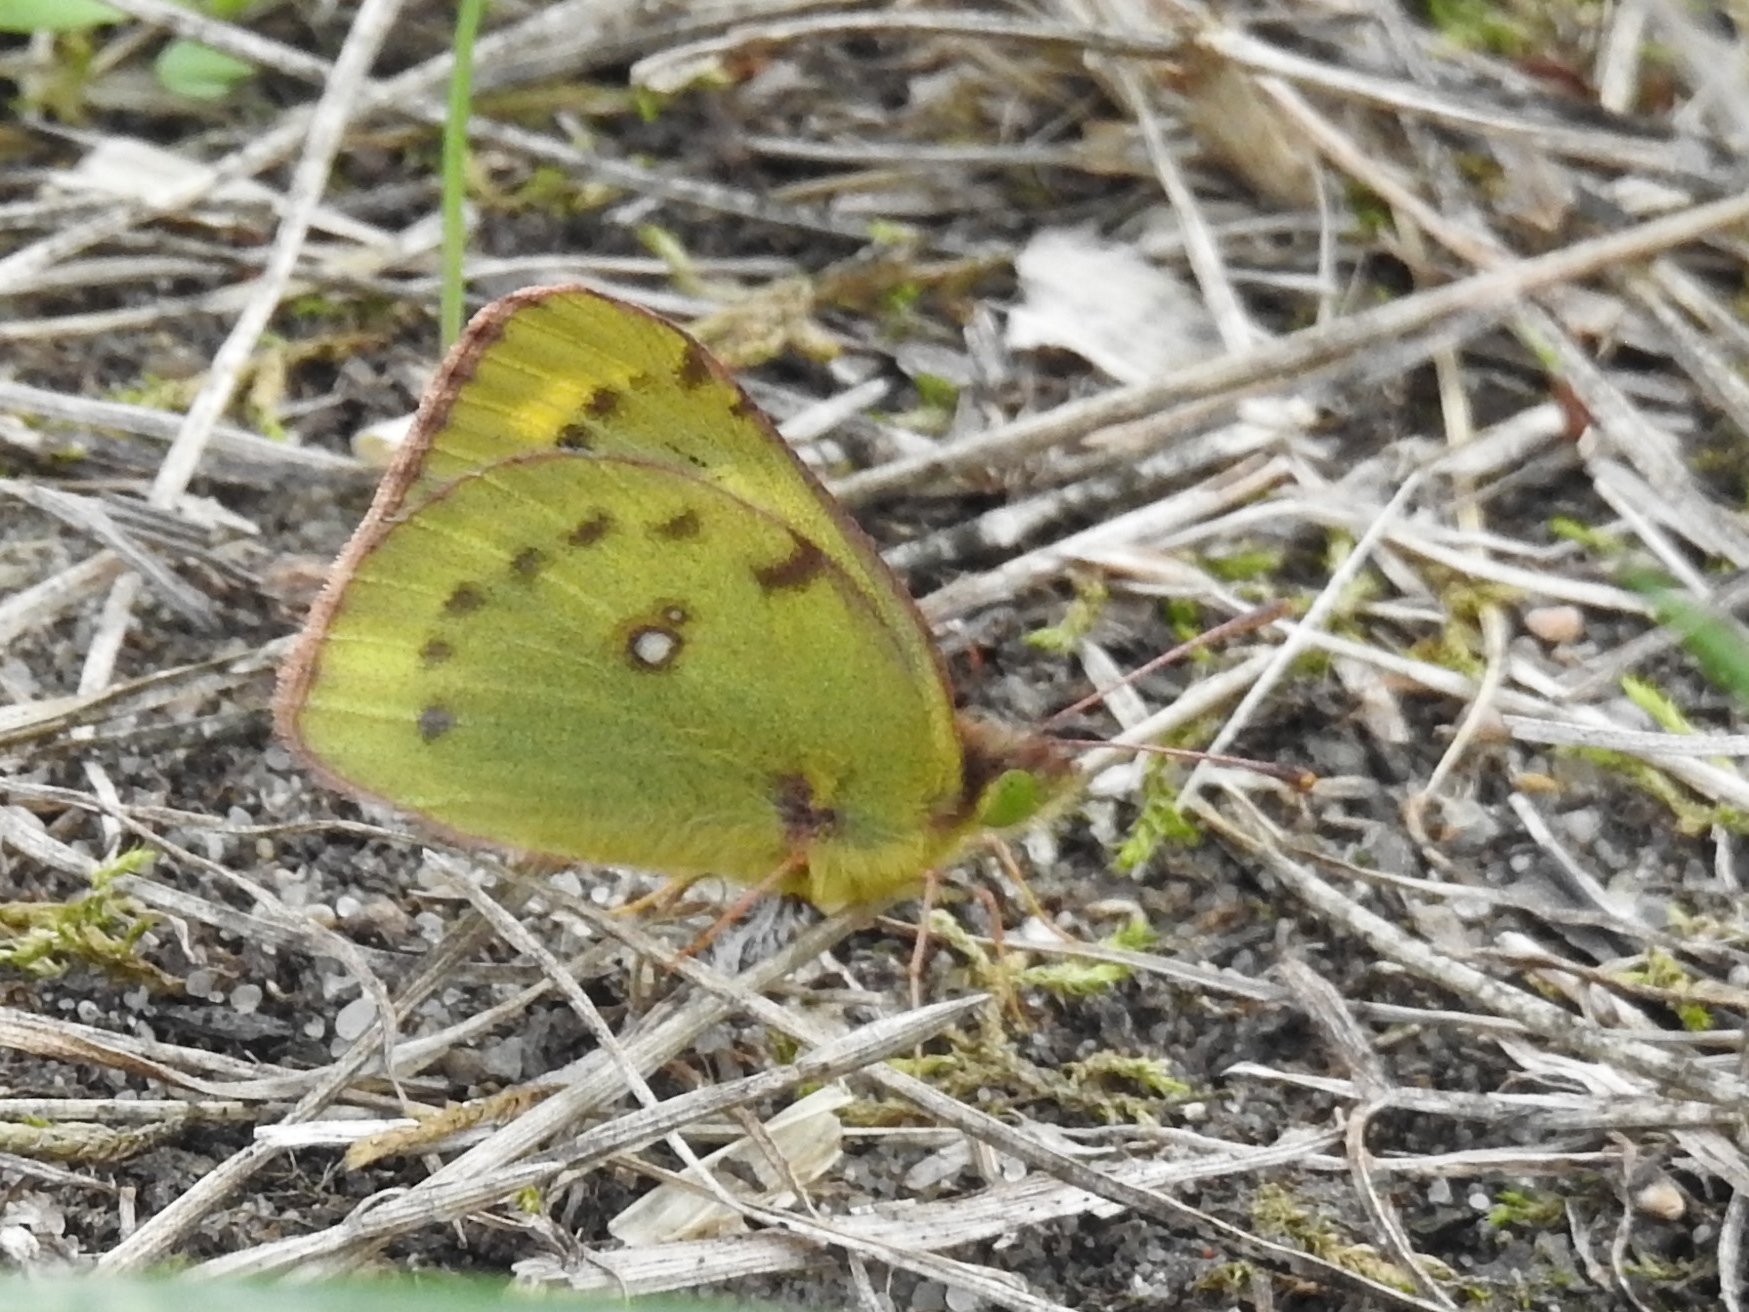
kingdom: Animalia
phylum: Arthropoda
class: Insecta
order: Lepidoptera
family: Pieridae
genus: Colias
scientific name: Colias croceus
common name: Clouded yellow
